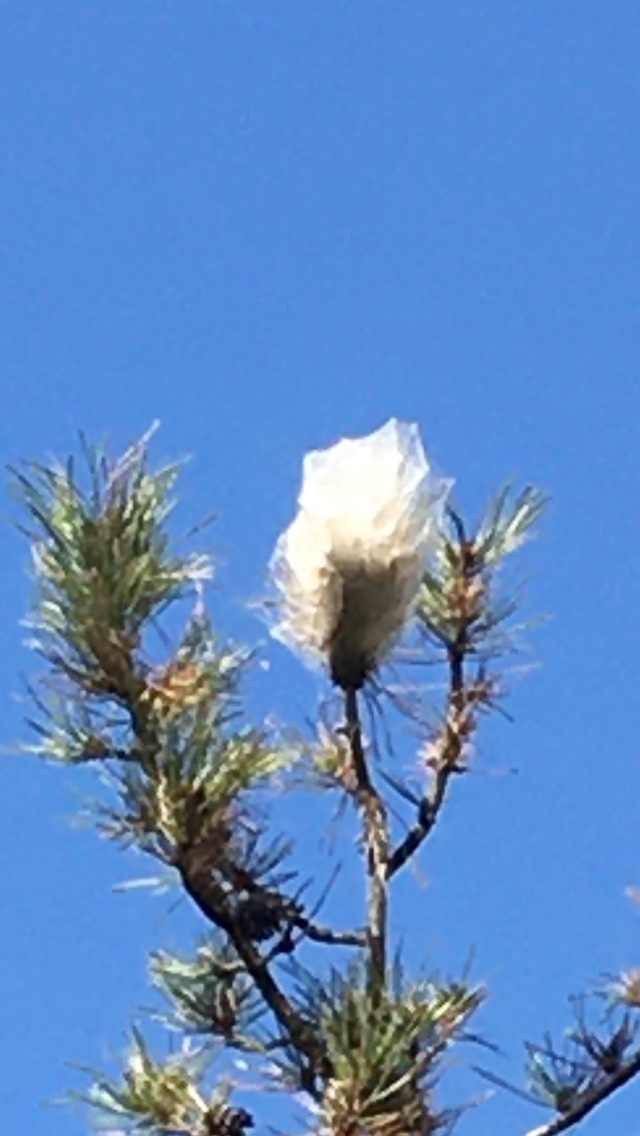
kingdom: Animalia
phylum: Arthropoda
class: Insecta
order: Lepidoptera
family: Notodontidae
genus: Thaumetopoea
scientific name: Thaumetopoea pityocampa
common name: Pine processionary
